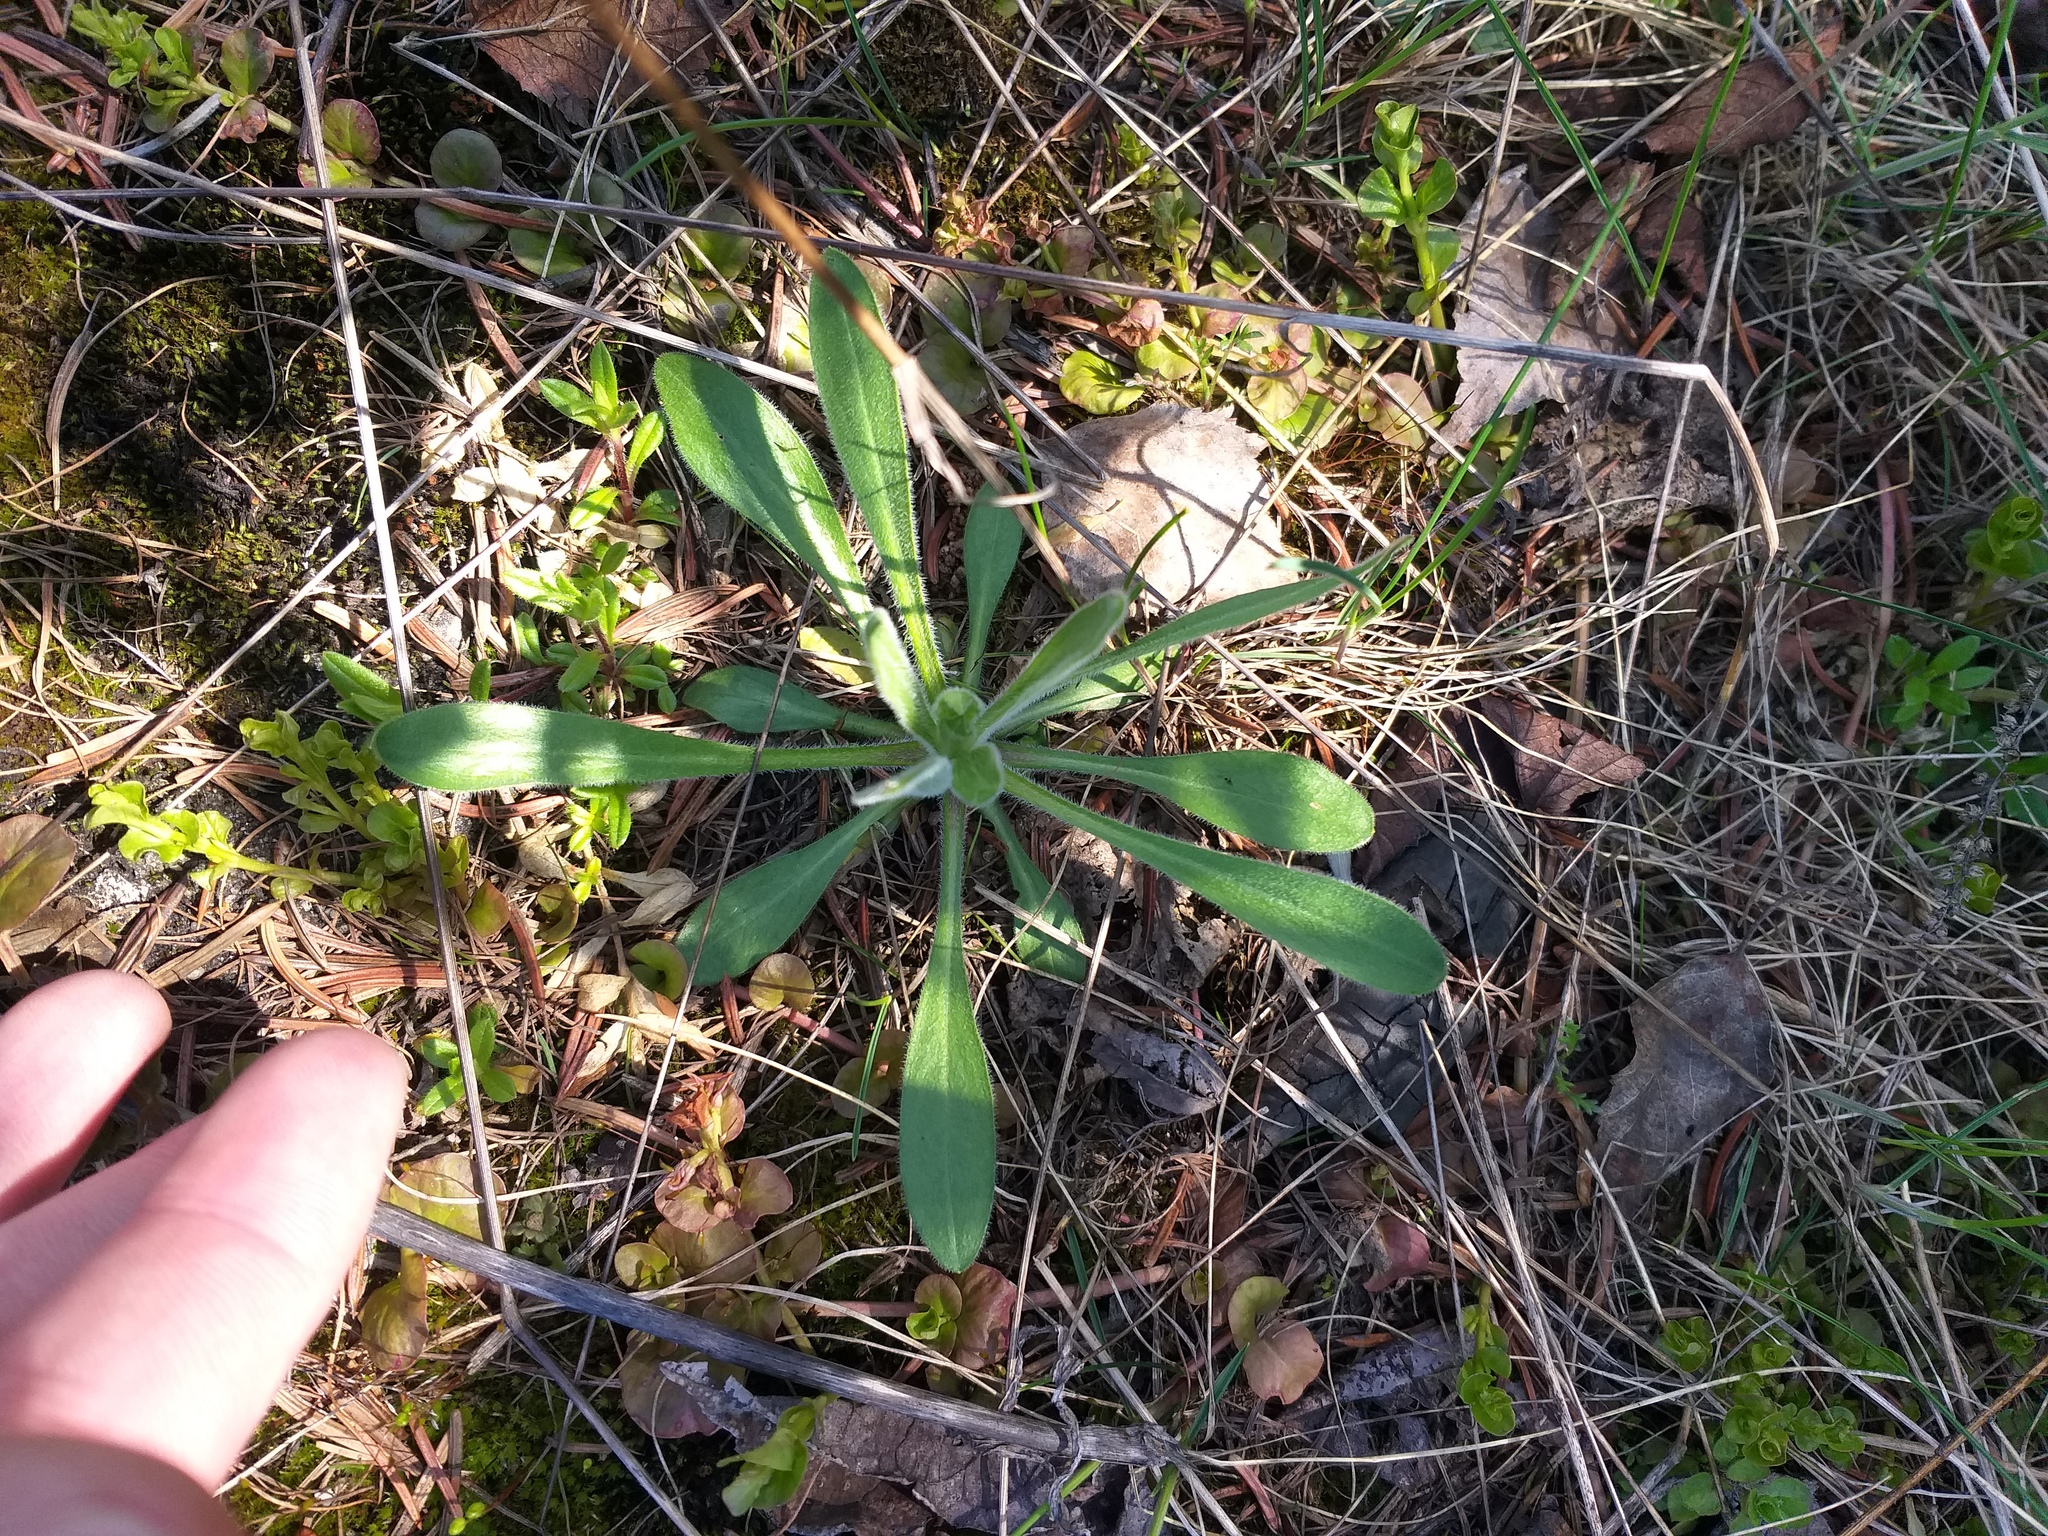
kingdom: Plantae
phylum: Tracheophyta
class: Magnoliopsida
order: Asterales
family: Asteraceae
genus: Erigeron
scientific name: Erigeron acris
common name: Blue fleabane
